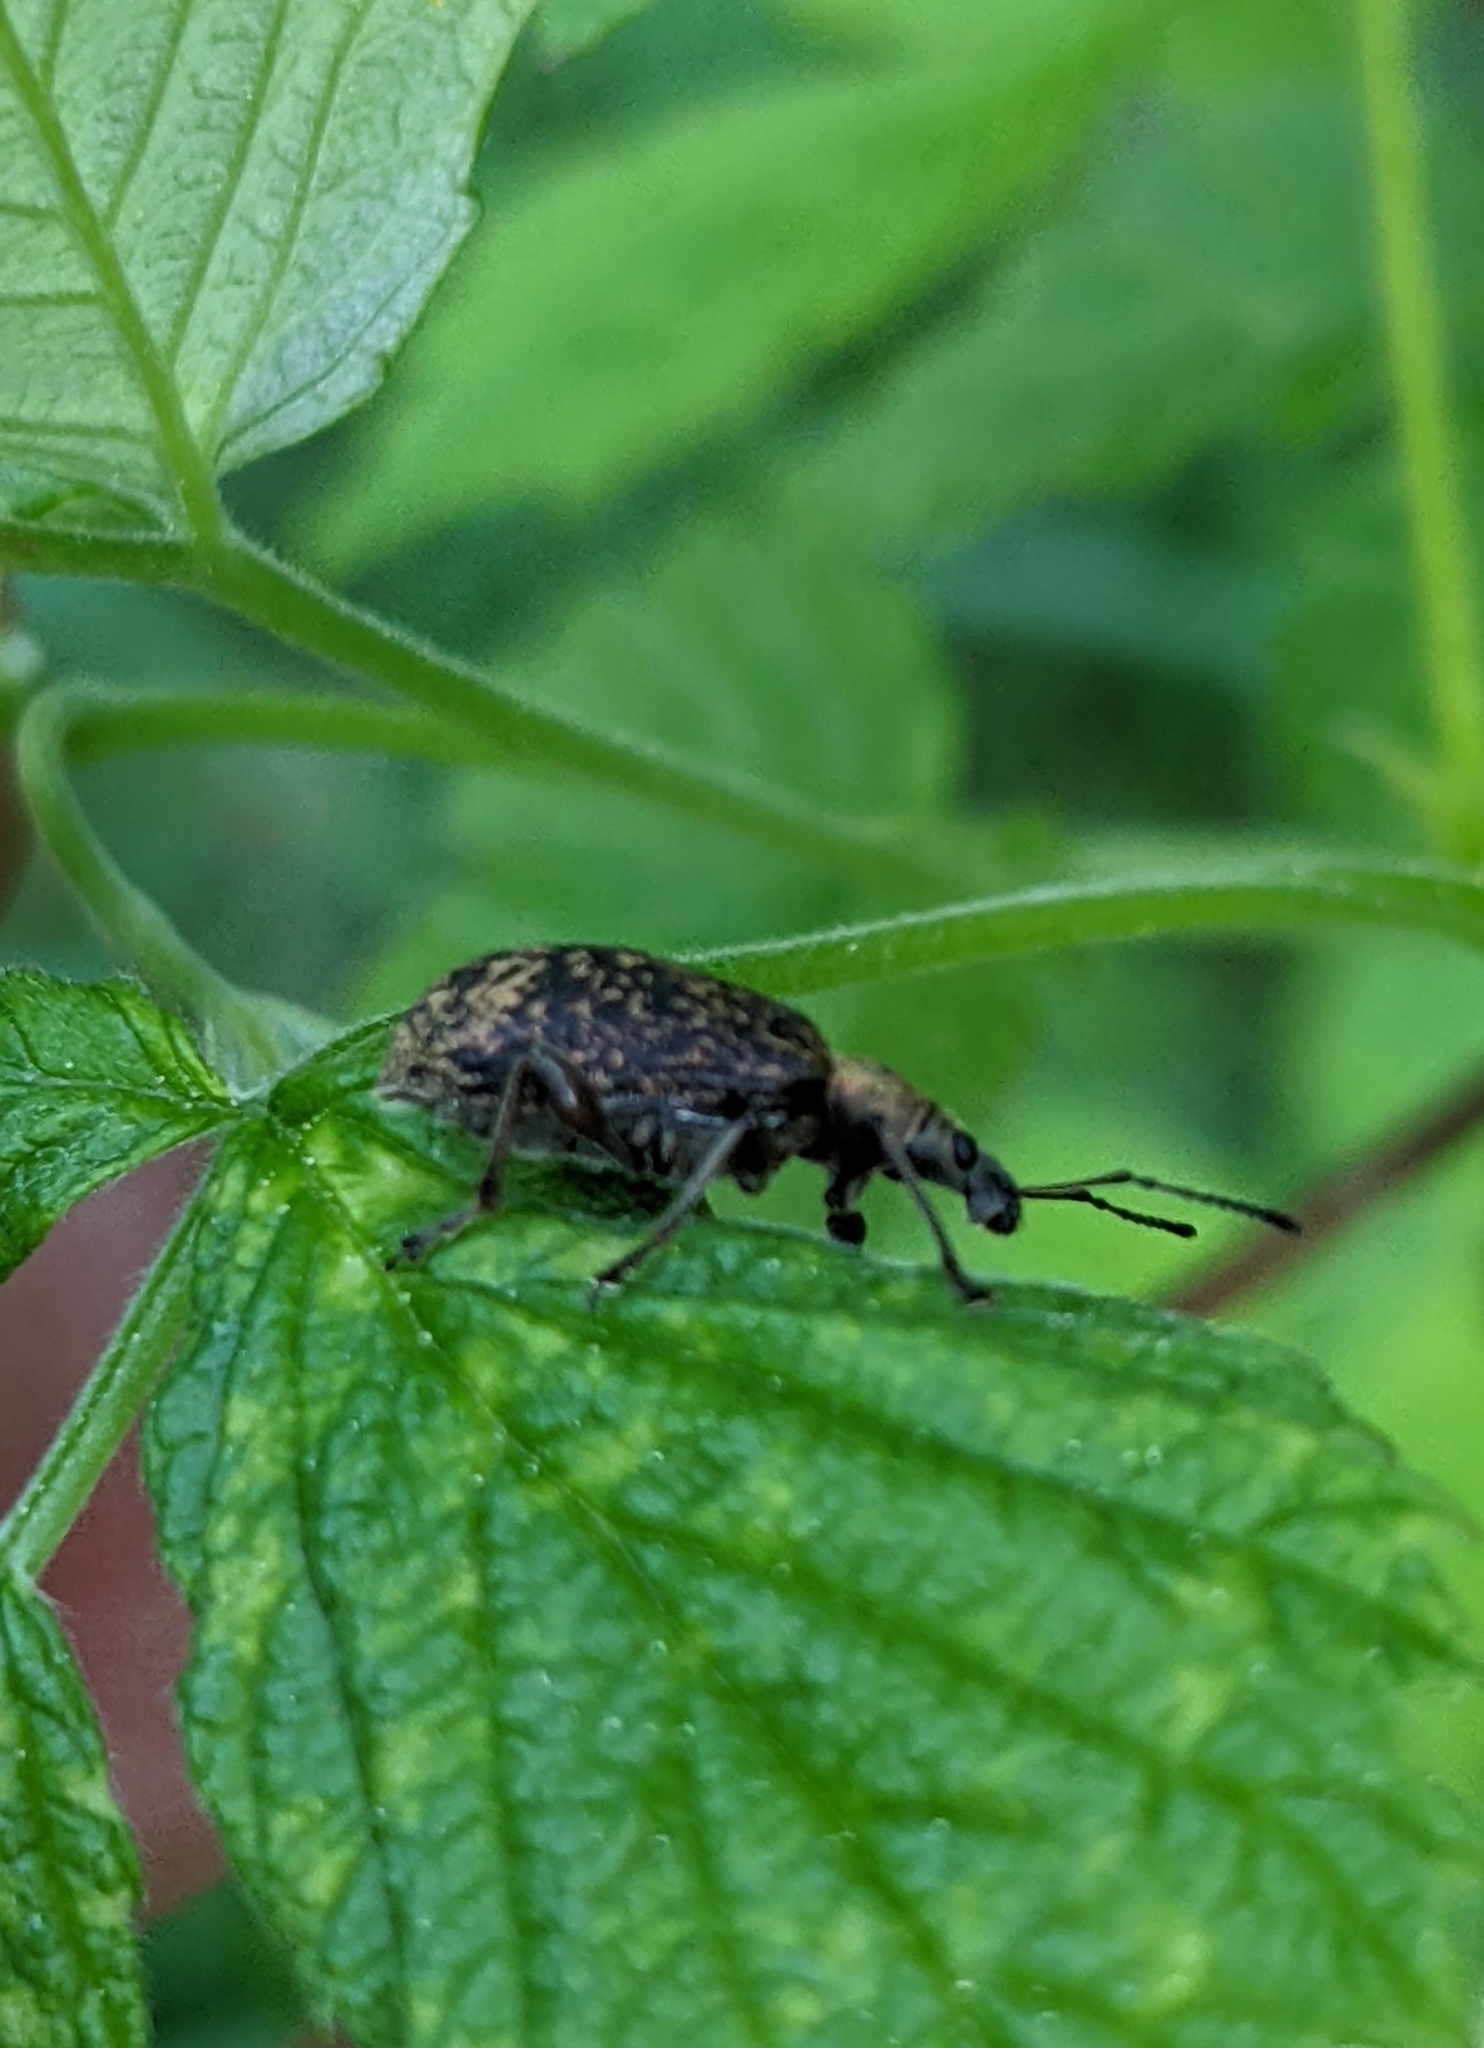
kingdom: Animalia
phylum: Arthropoda
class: Insecta
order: Coleoptera
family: Curculionidae
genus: Phyllobius
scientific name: Phyllobius glaucus
